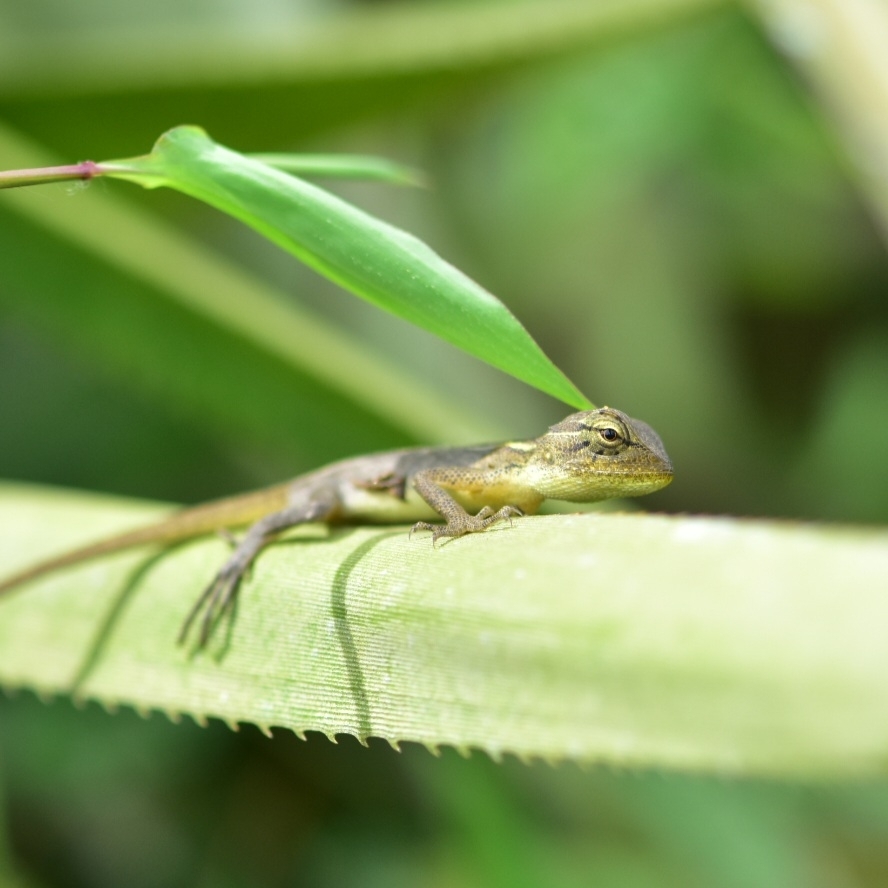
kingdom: Animalia
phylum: Chordata
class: Squamata
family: Agamidae
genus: Calotes
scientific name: Calotes versicolor
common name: Oriental garden lizard
